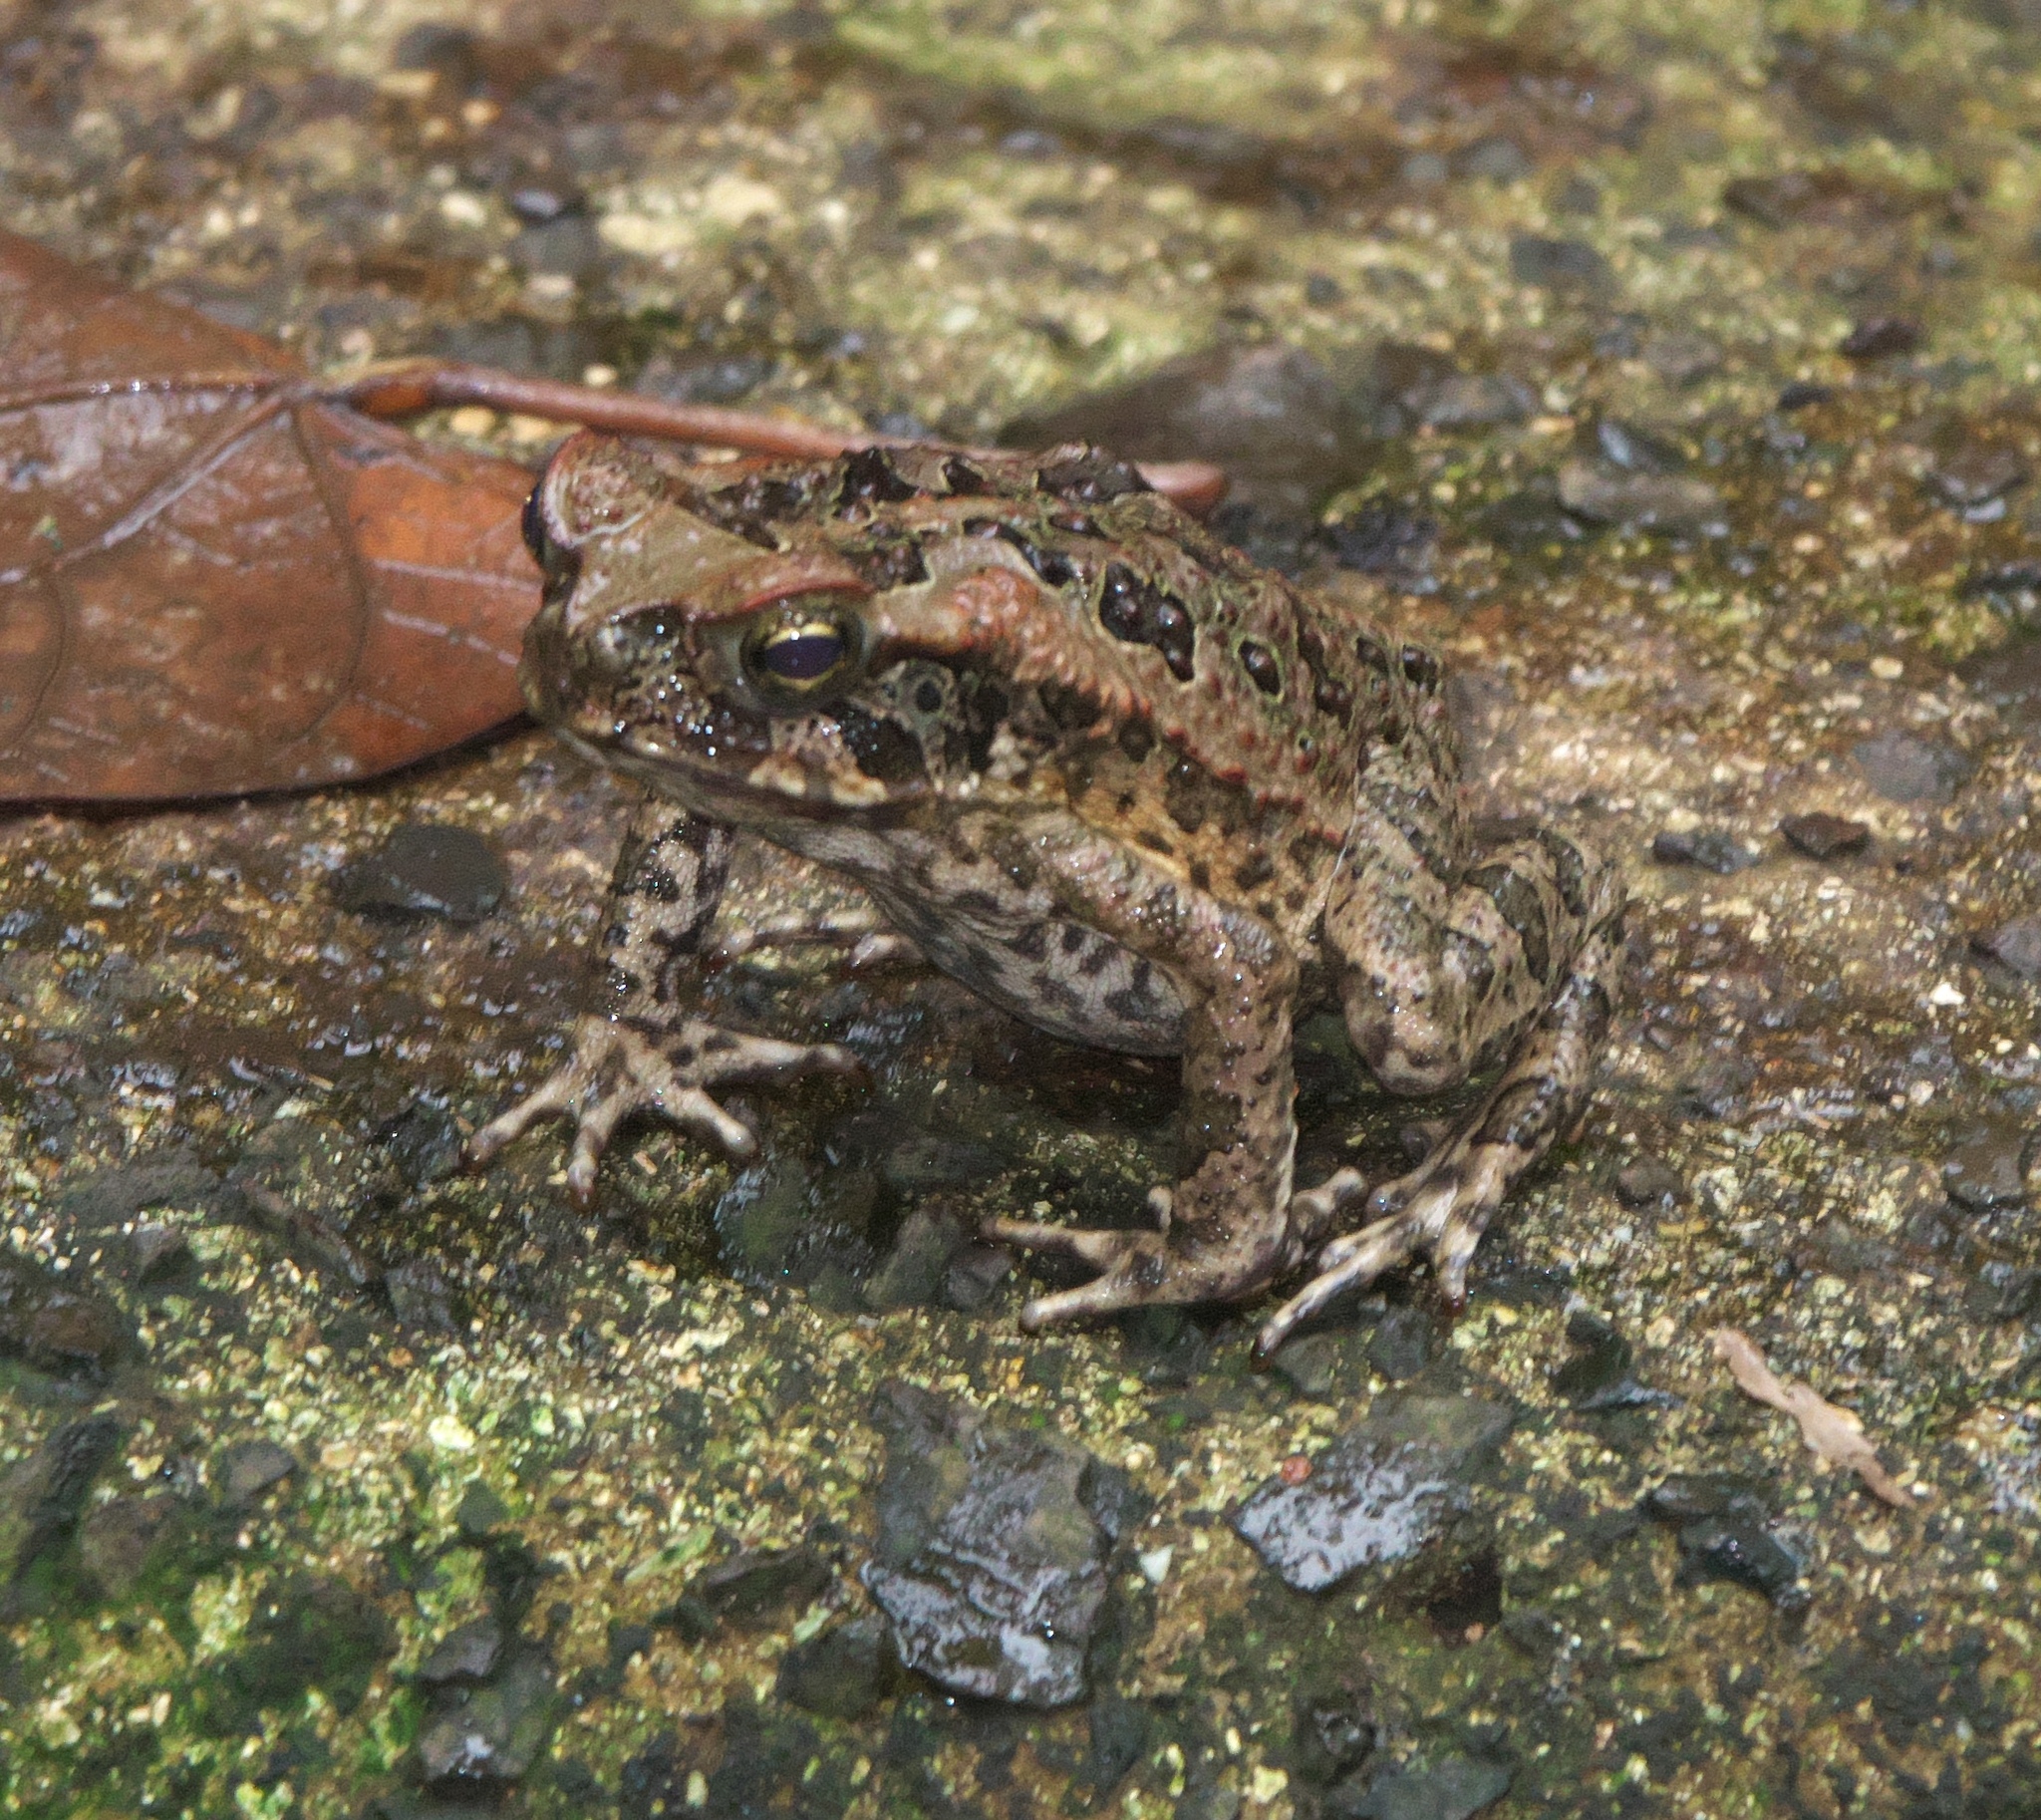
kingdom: Animalia
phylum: Chordata
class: Amphibia
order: Anura
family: Bufonidae
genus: Rhinella
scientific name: Rhinella marina
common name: Cane toad
